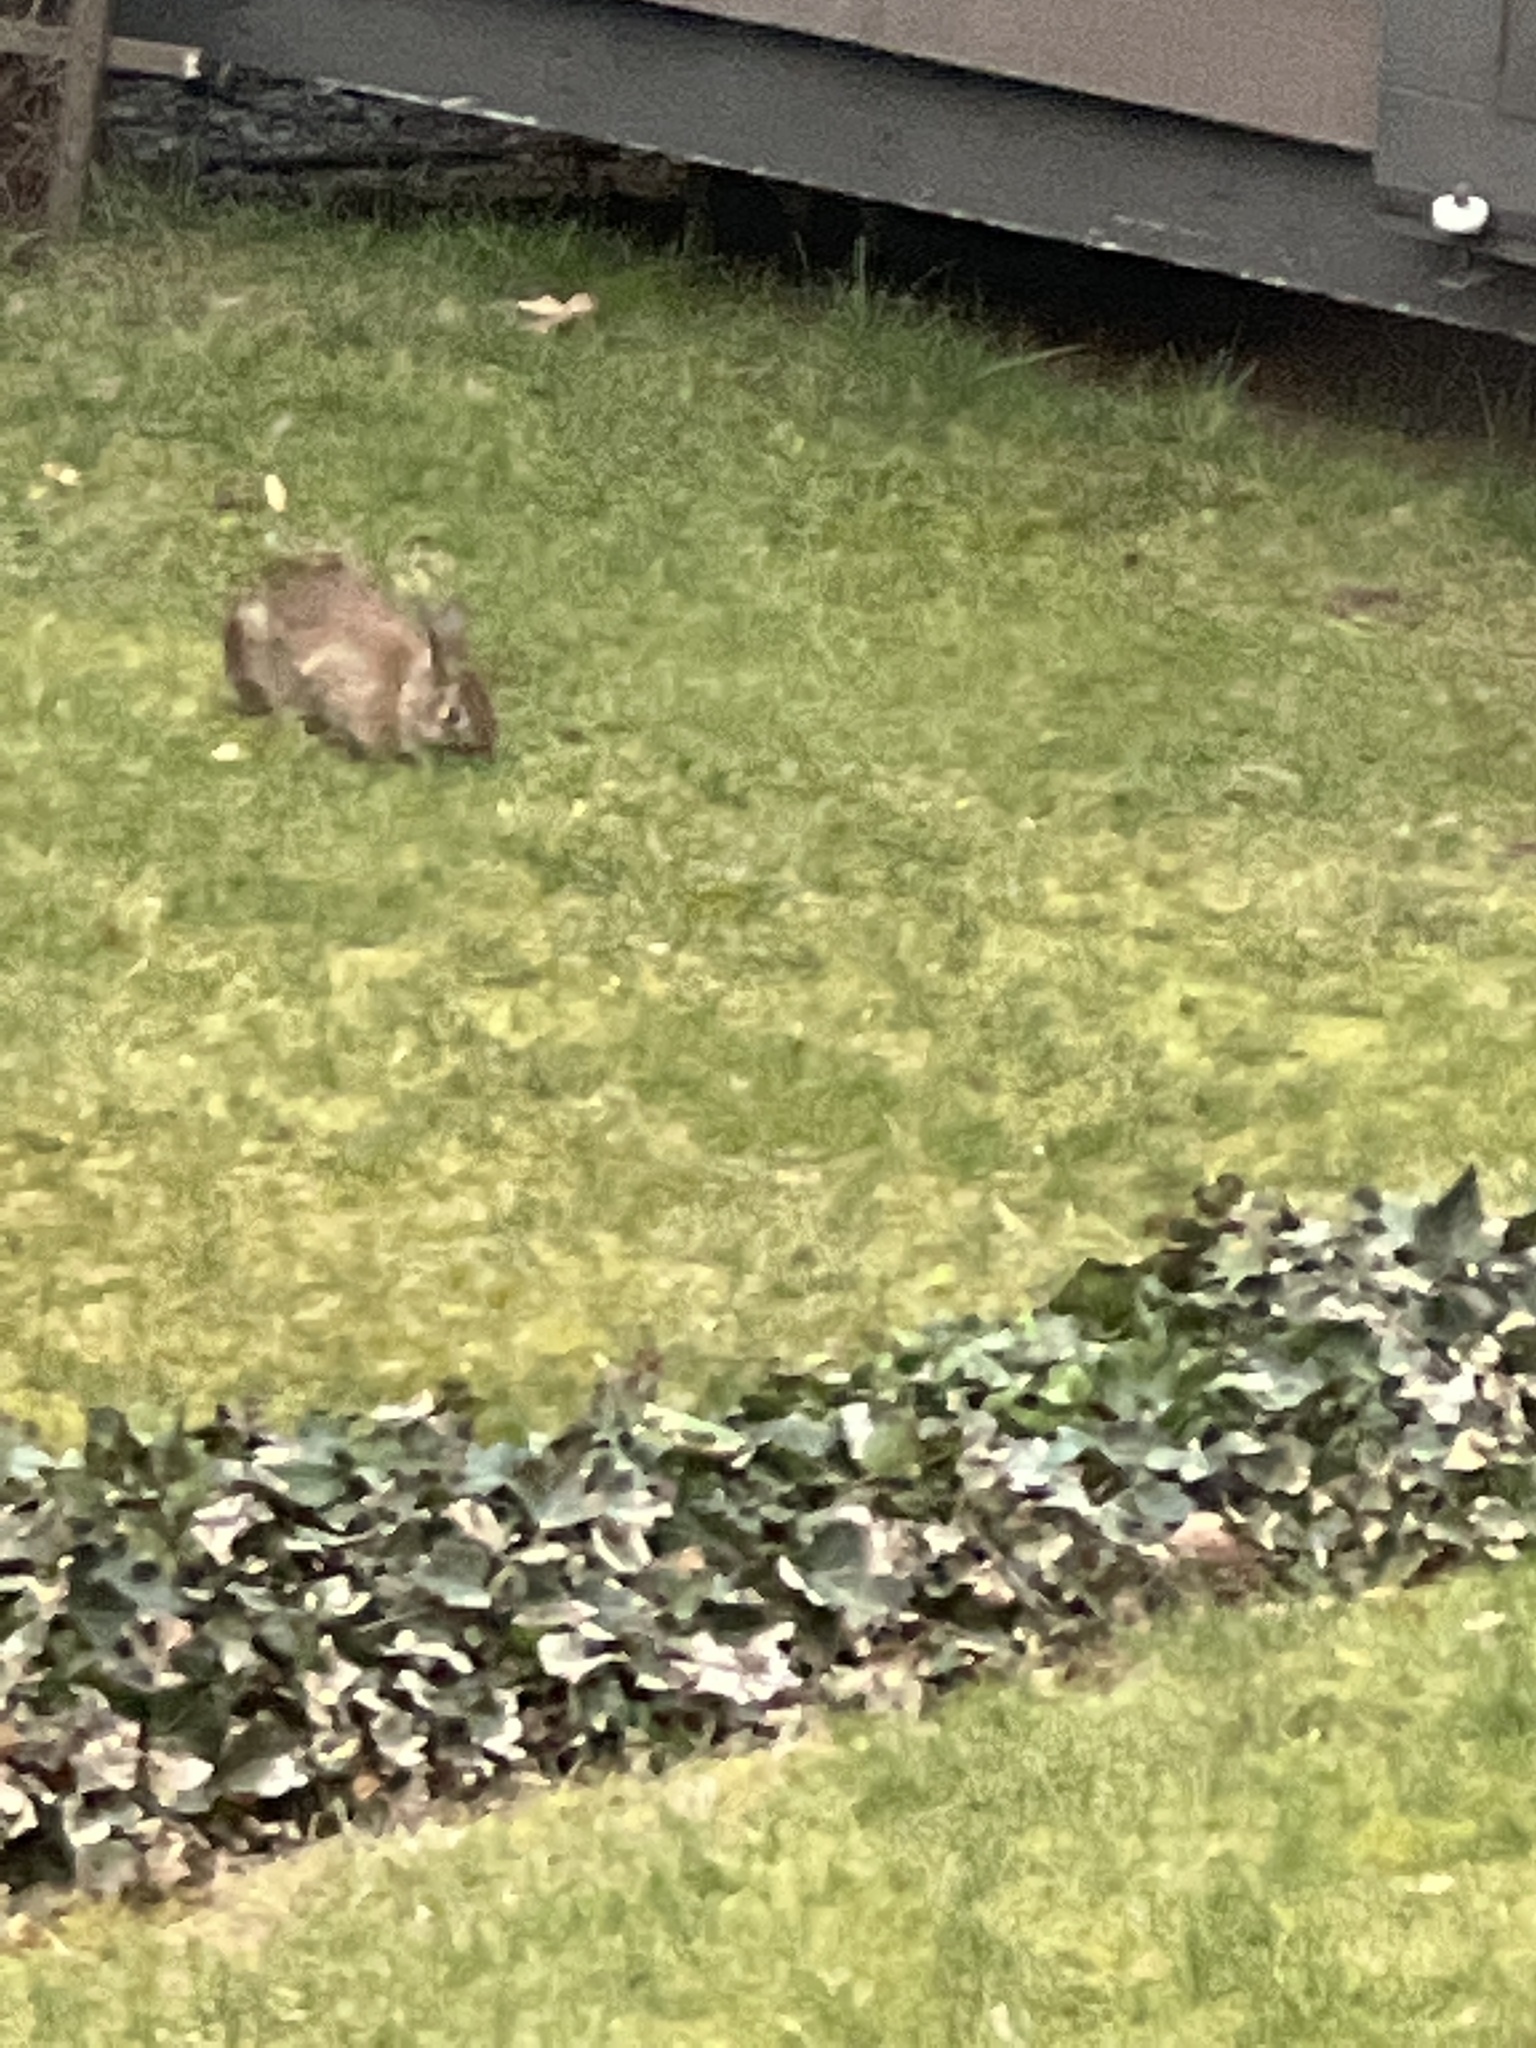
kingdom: Animalia
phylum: Chordata
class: Mammalia
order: Lagomorpha
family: Leporidae
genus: Sylvilagus
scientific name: Sylvilagus floridanus
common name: Eastern cottontail
